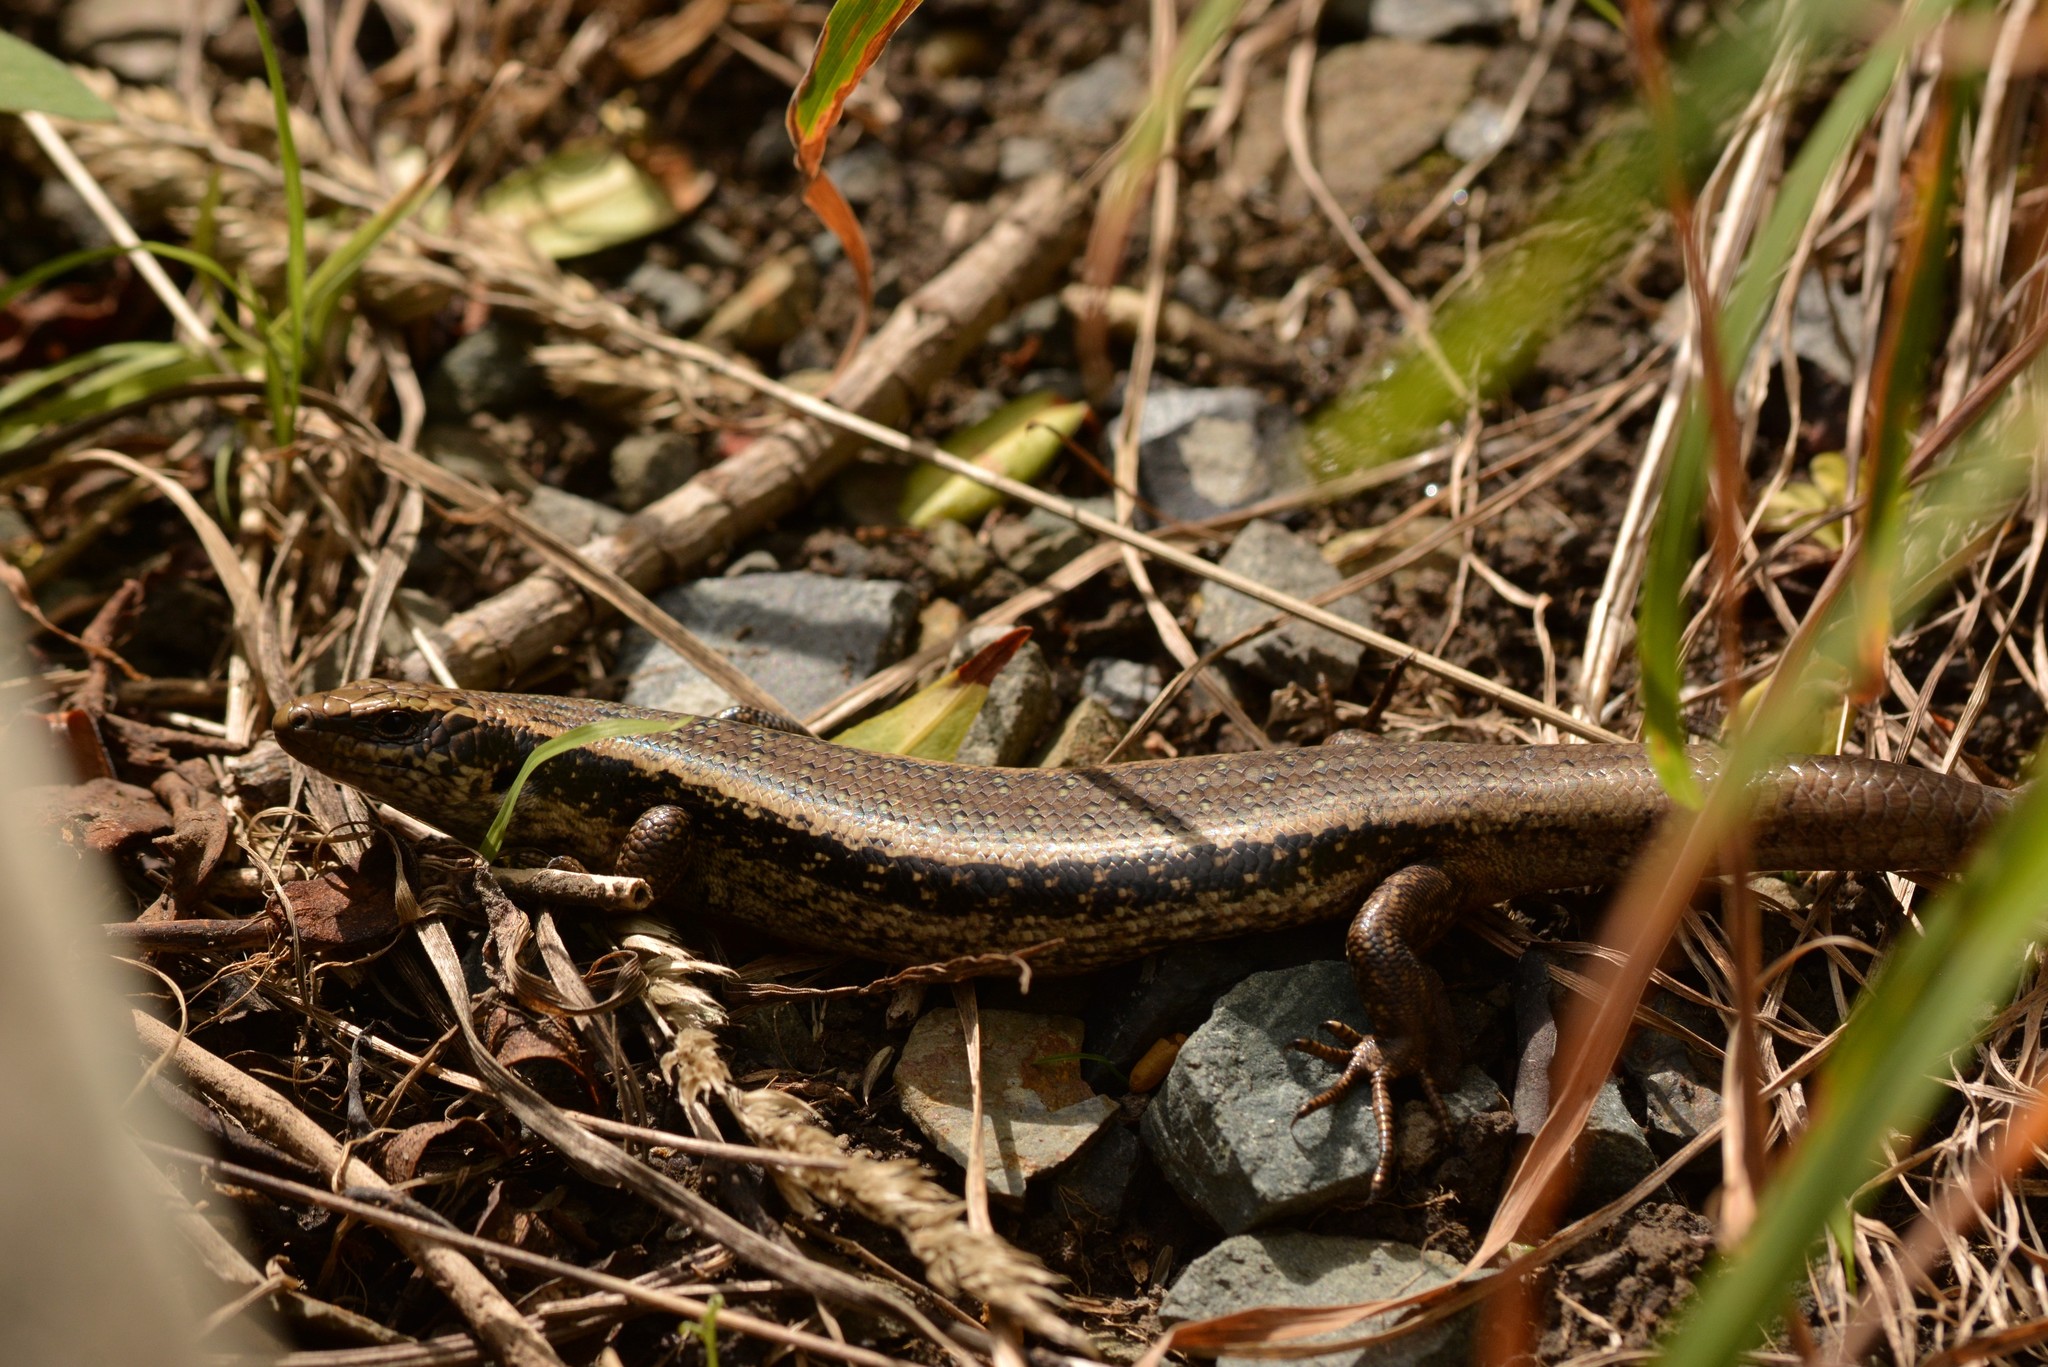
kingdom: Animalia
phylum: Chordata
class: Squamata
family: Scincidae
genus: Oligosoma
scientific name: Oligosoma kokowai
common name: Northern spotted skink
